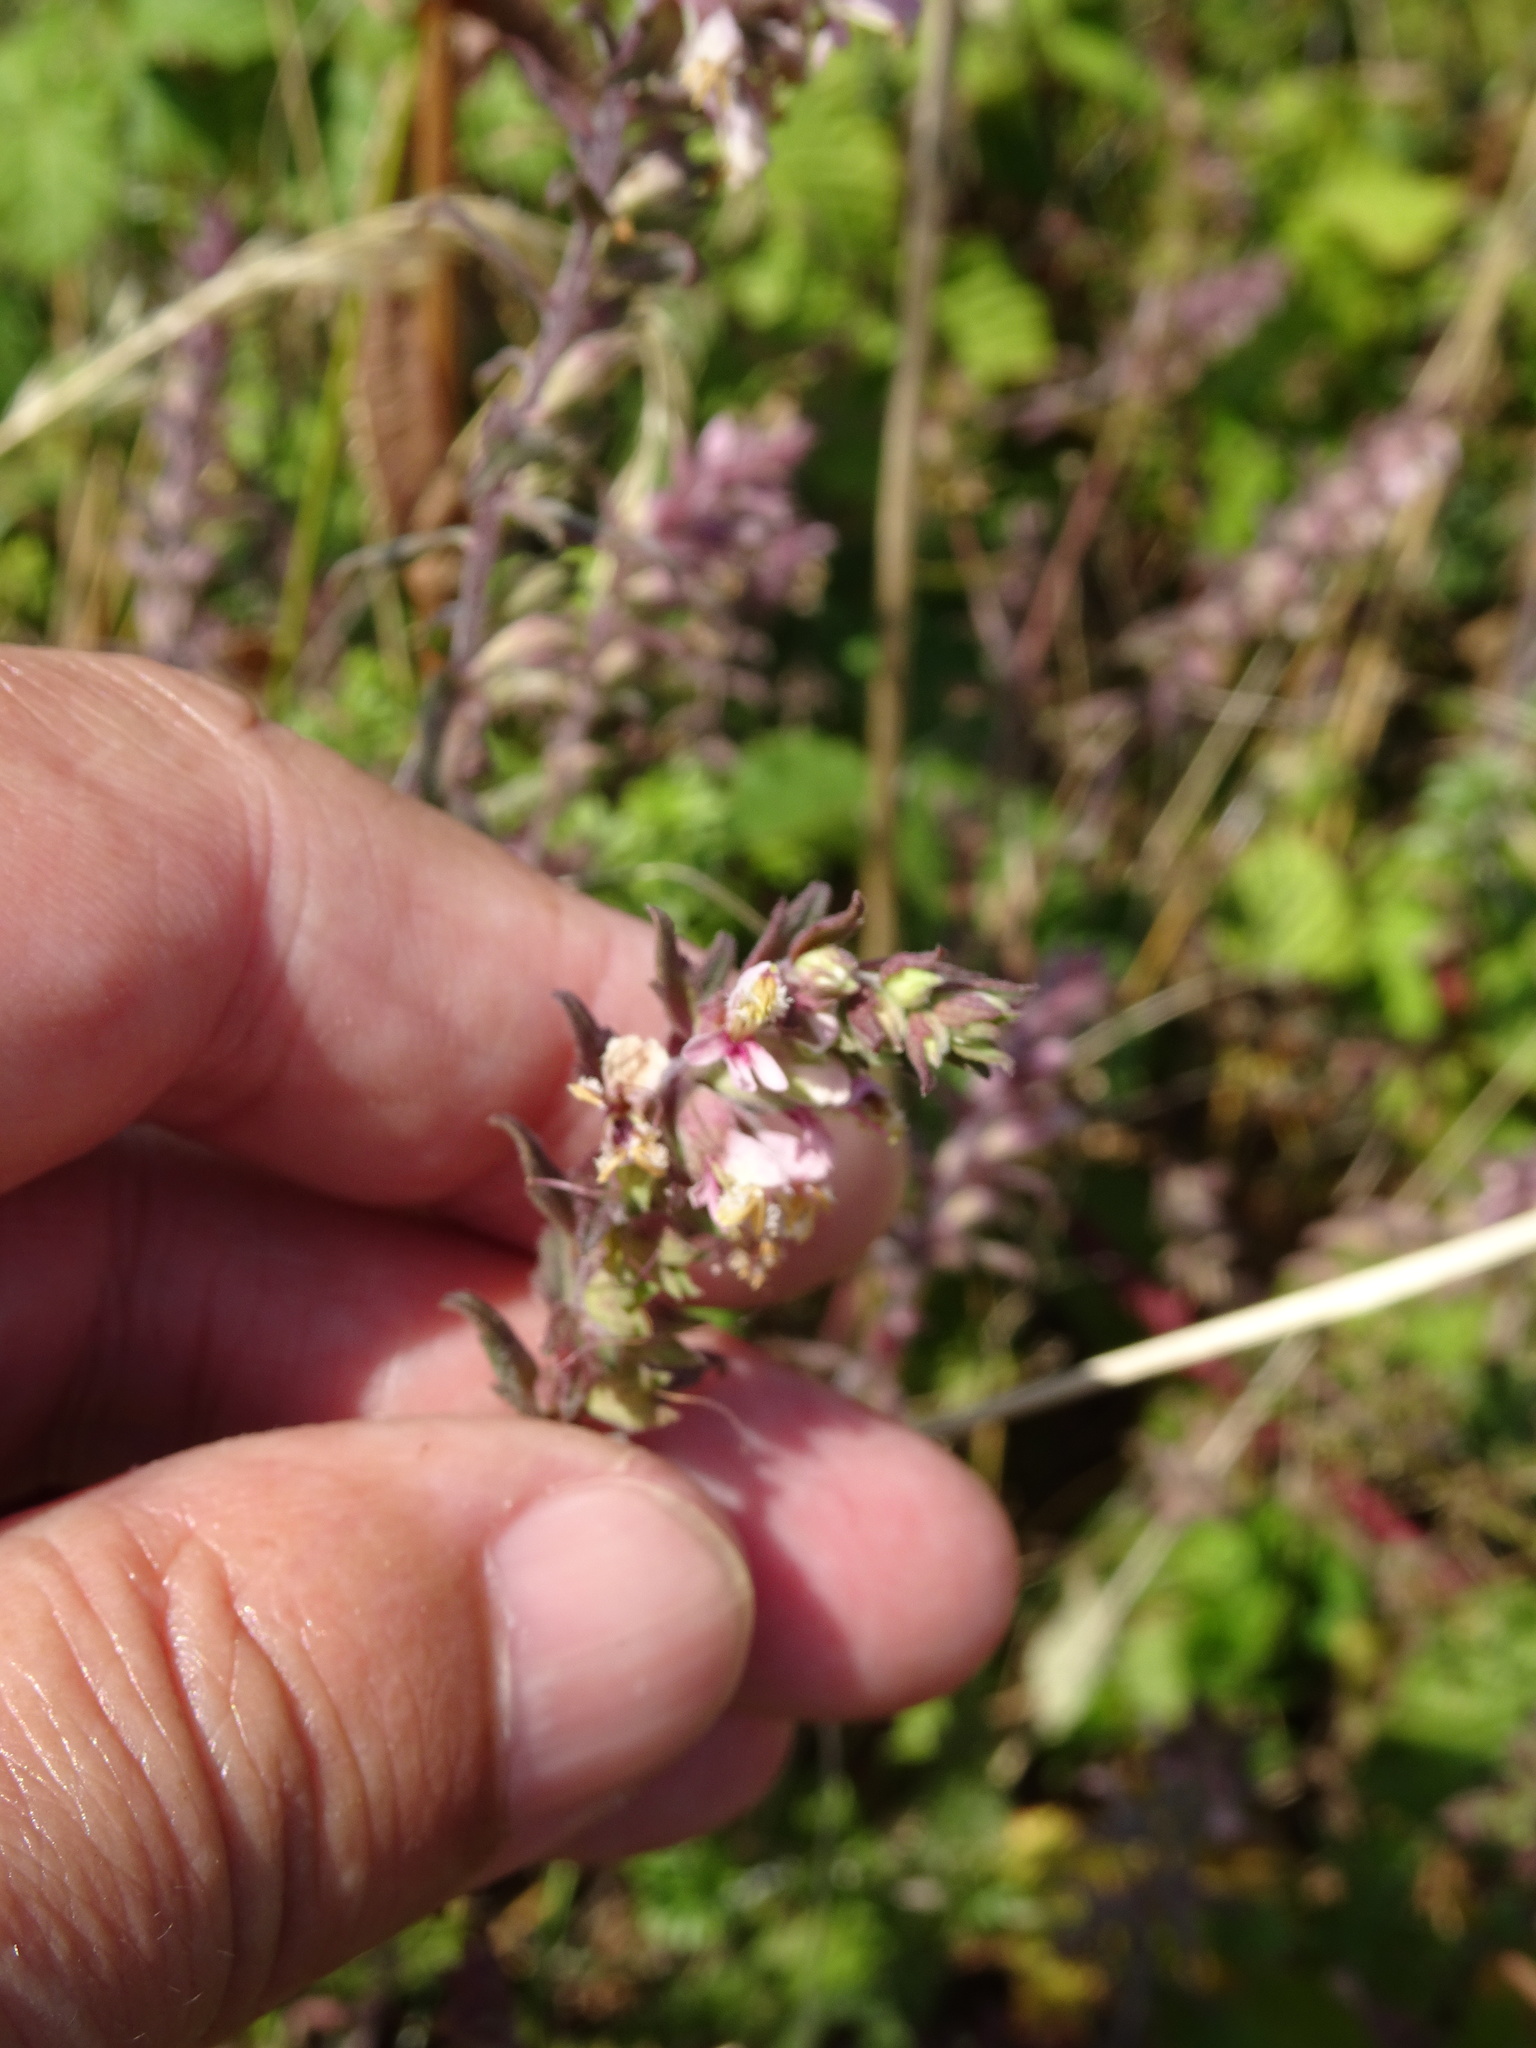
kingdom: Plantae
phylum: Tracheophyta
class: Magnoliopsida
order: Lamiales
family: Orobanchaceae
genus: Odontites
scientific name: Odontites vulgaris
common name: Broomrape
